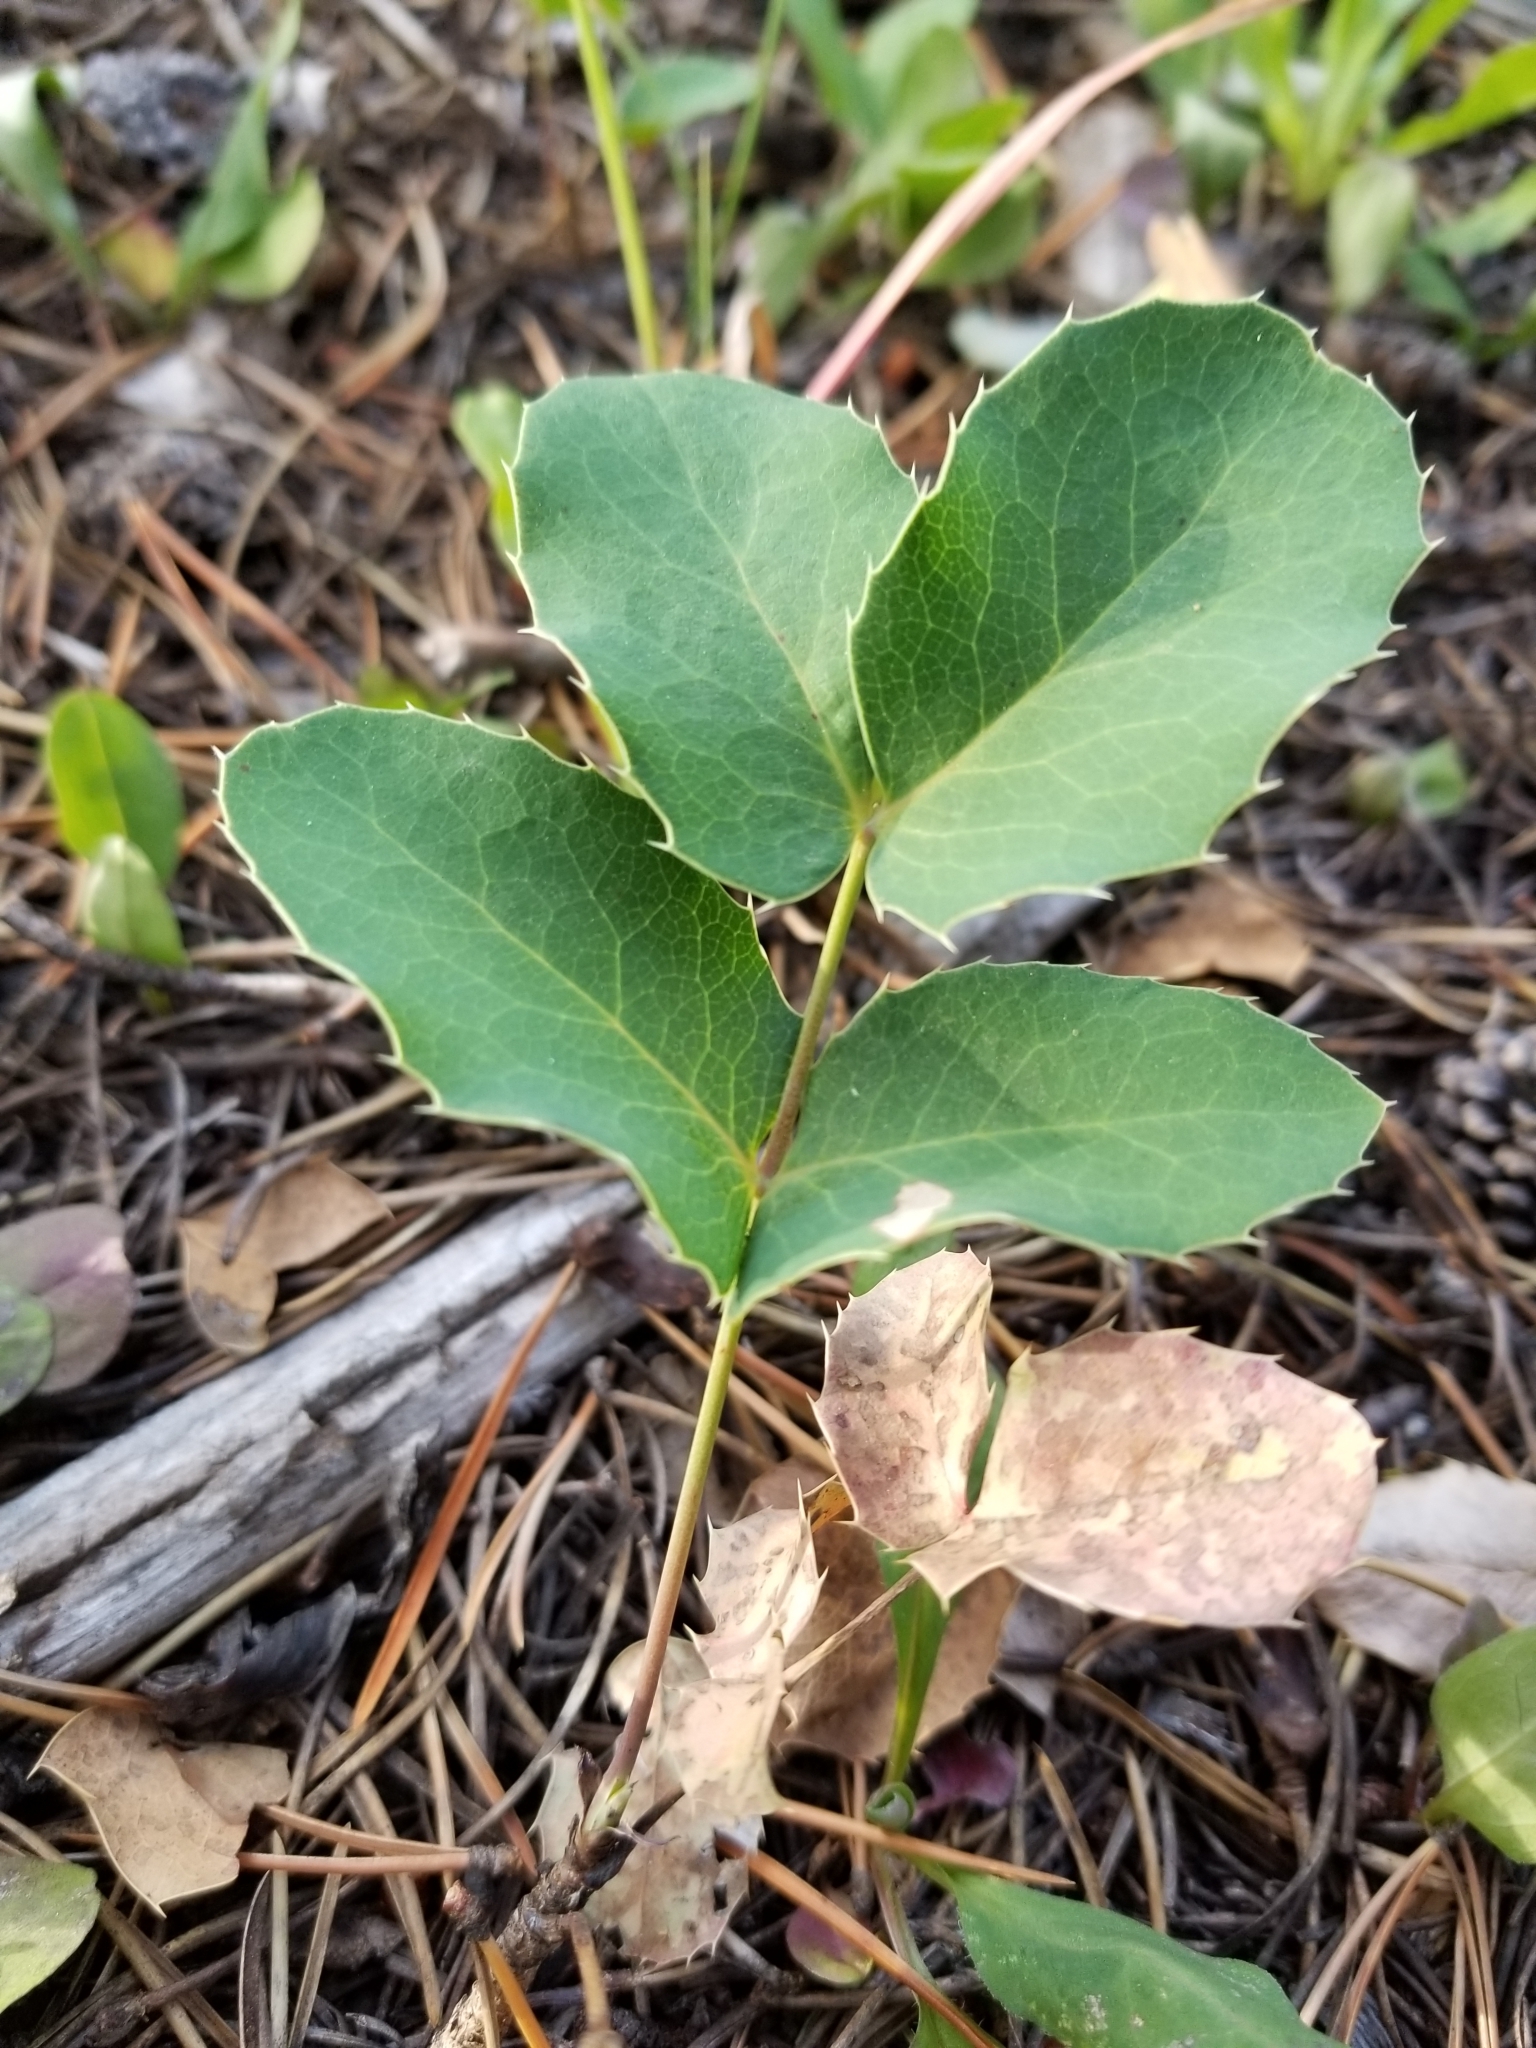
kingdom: Plantae
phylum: Tracheophyta
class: Magnoliopsida
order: Ranunculales
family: Berberidaceae
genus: Mahonia
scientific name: Mahonia repens
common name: Creeping oregon-grape
